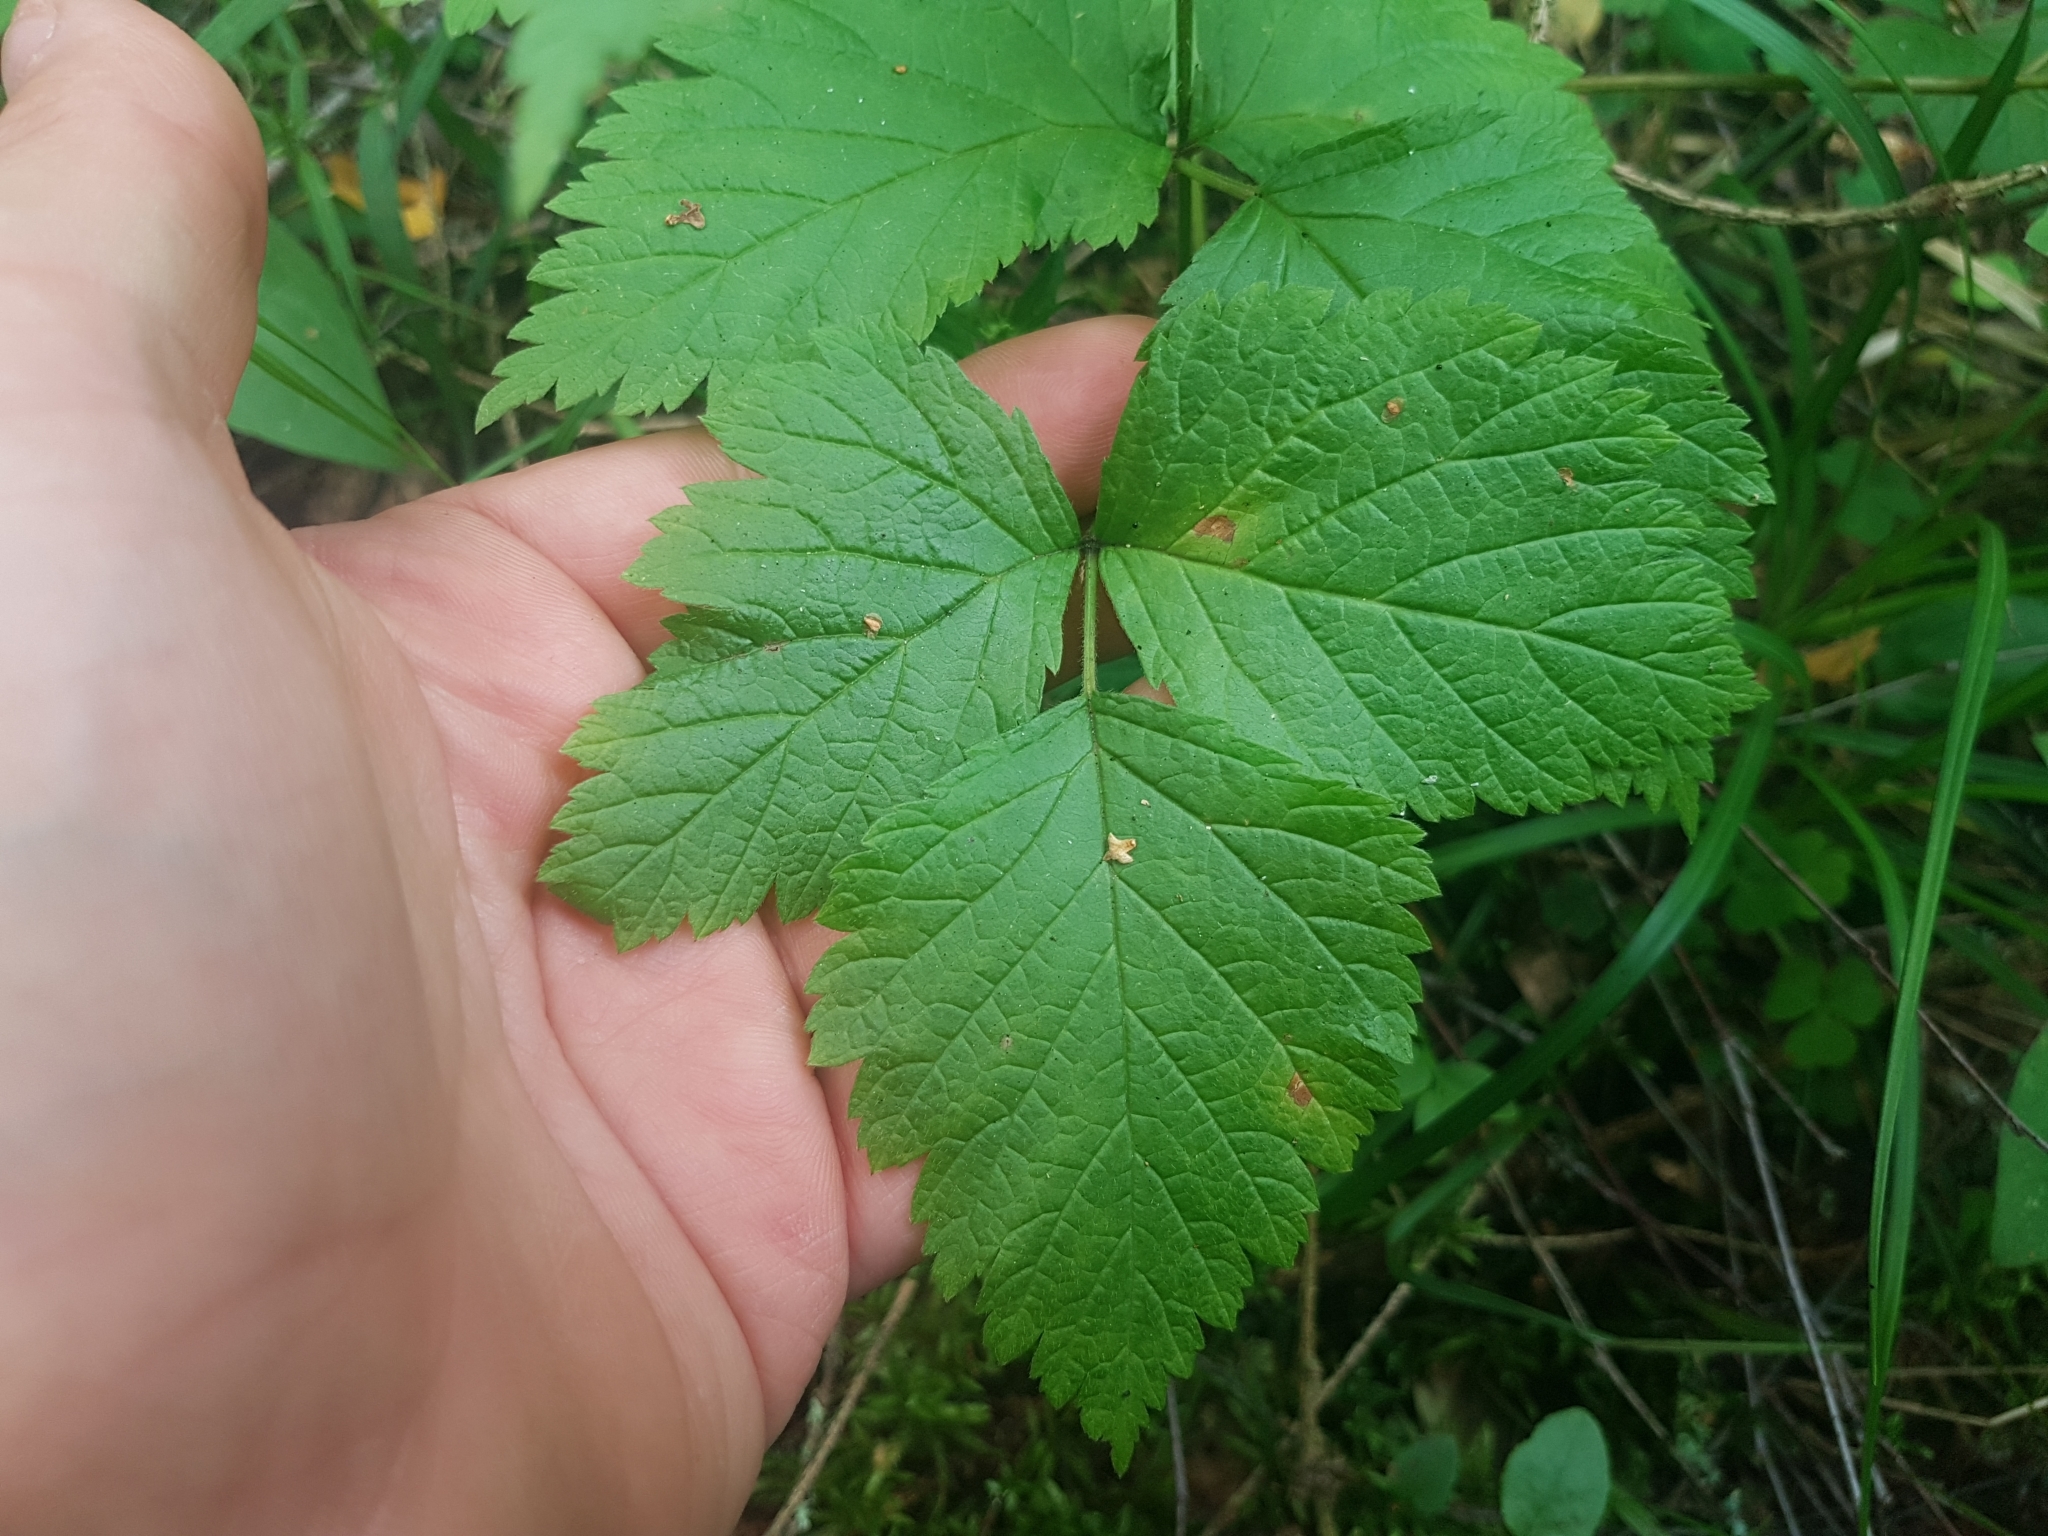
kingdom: Plantae
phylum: Tracheophyta
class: Magnoliopsida
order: Rosales
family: Rosaceae
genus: Rubus
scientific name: Rubus saxatilis
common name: Stone bramble
